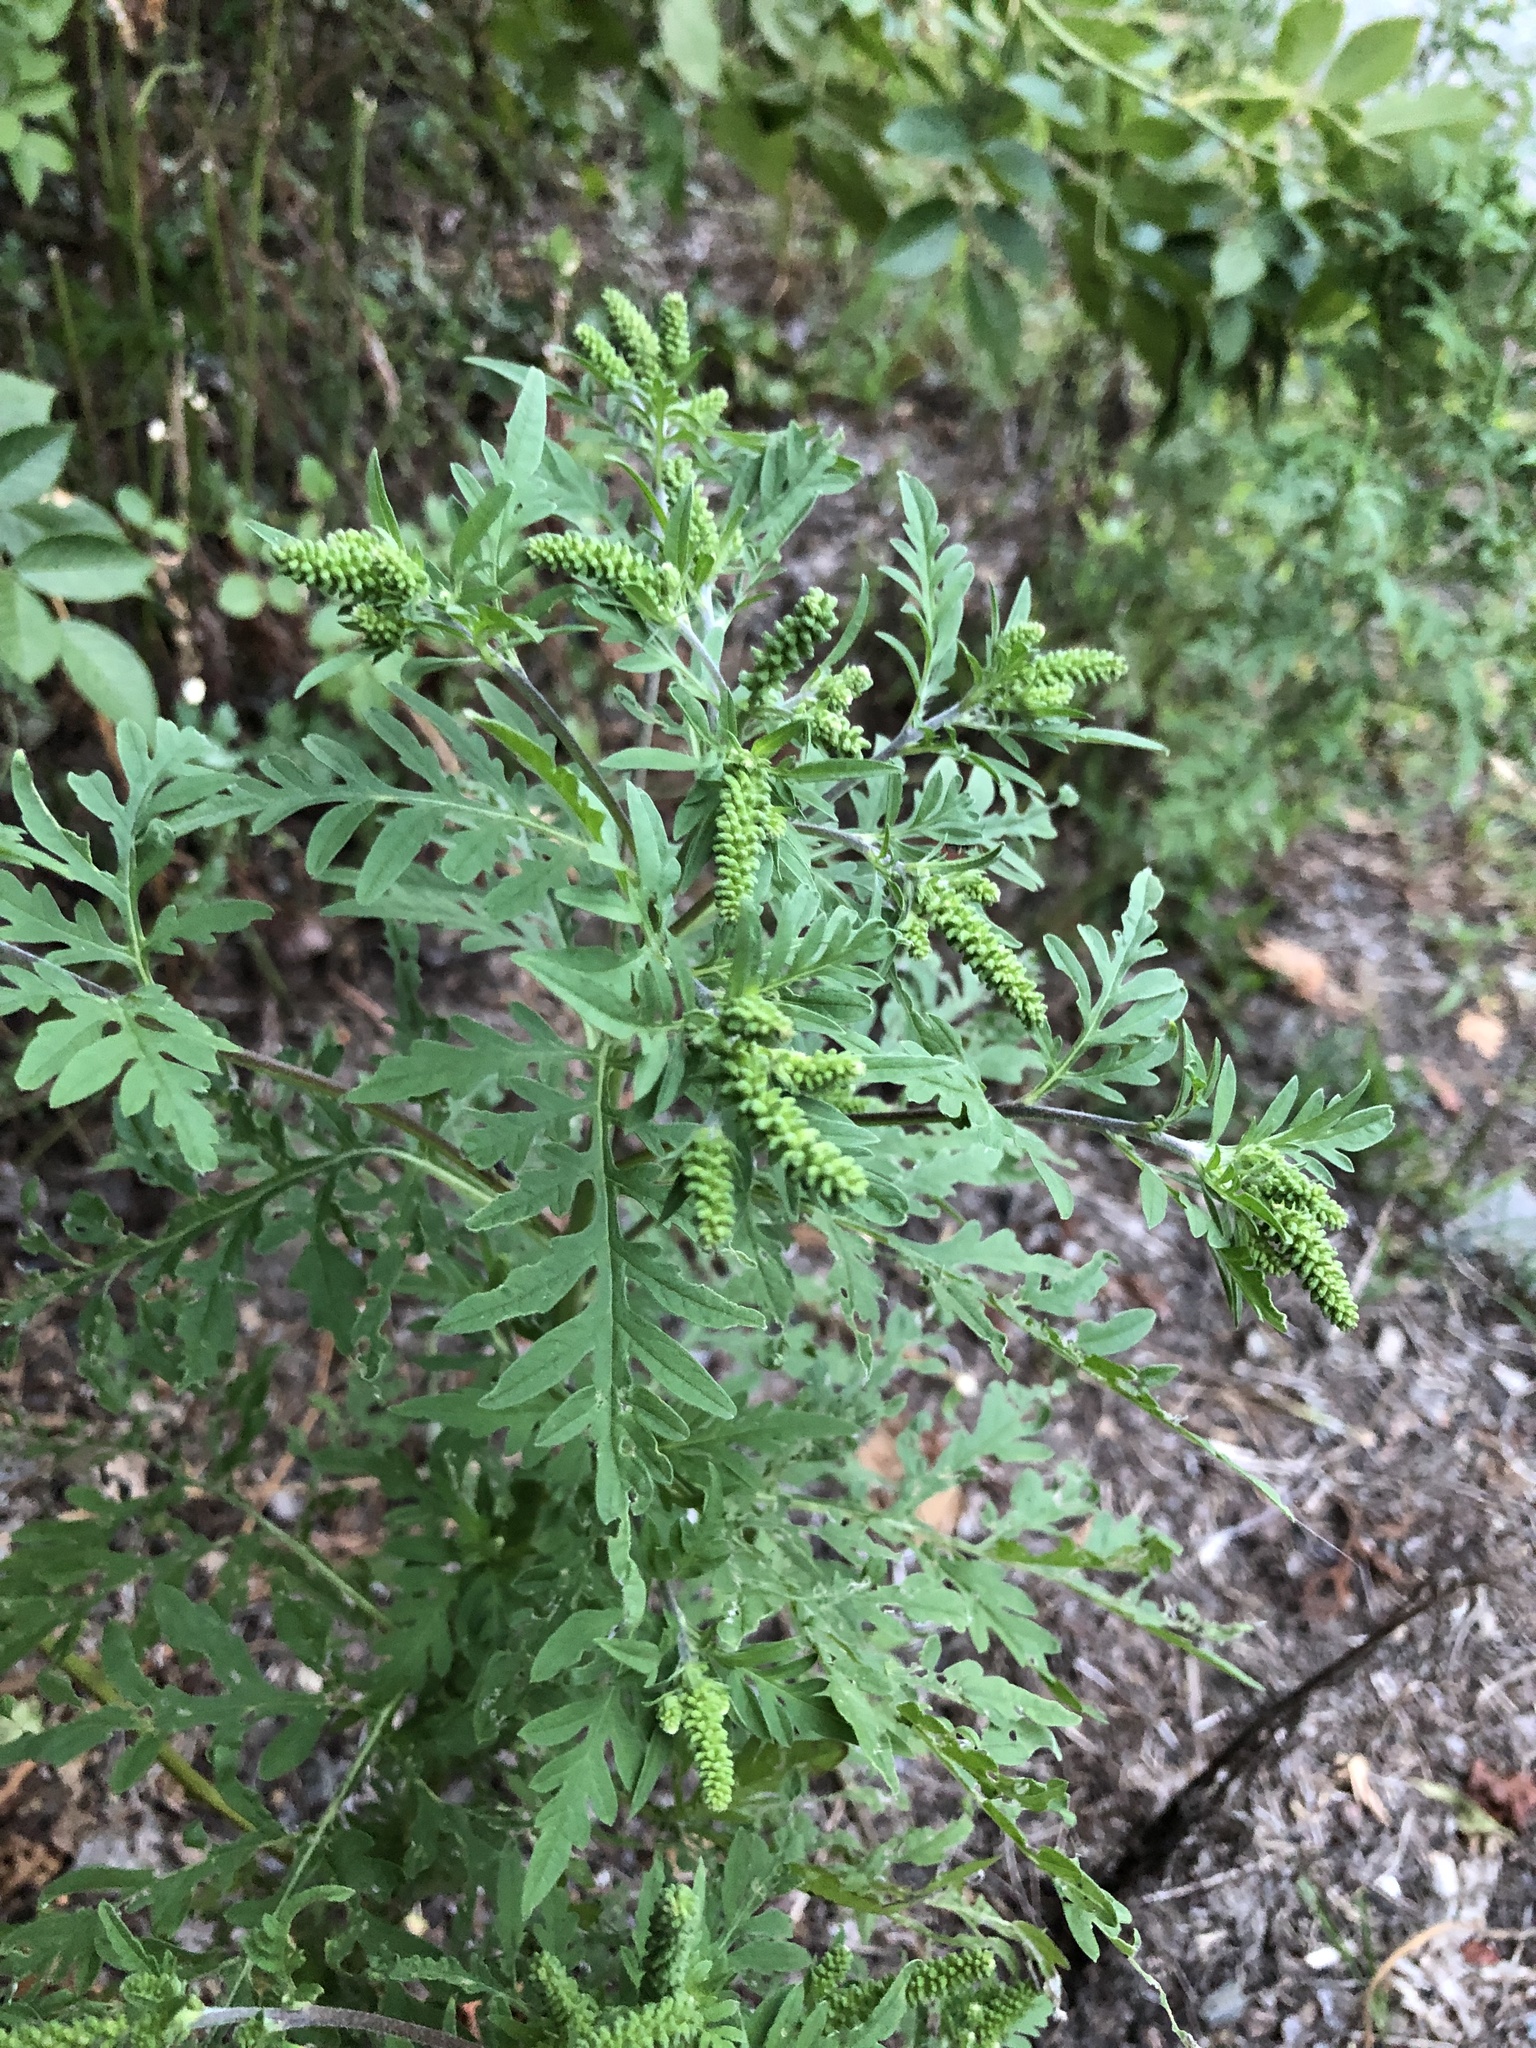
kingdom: Plantae
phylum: Tracheophyta
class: Magnoliopsida
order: Asterales
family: Asteraceae
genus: Ambrosia
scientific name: Ambrosia artemisiifolia
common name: Annual ragweed
